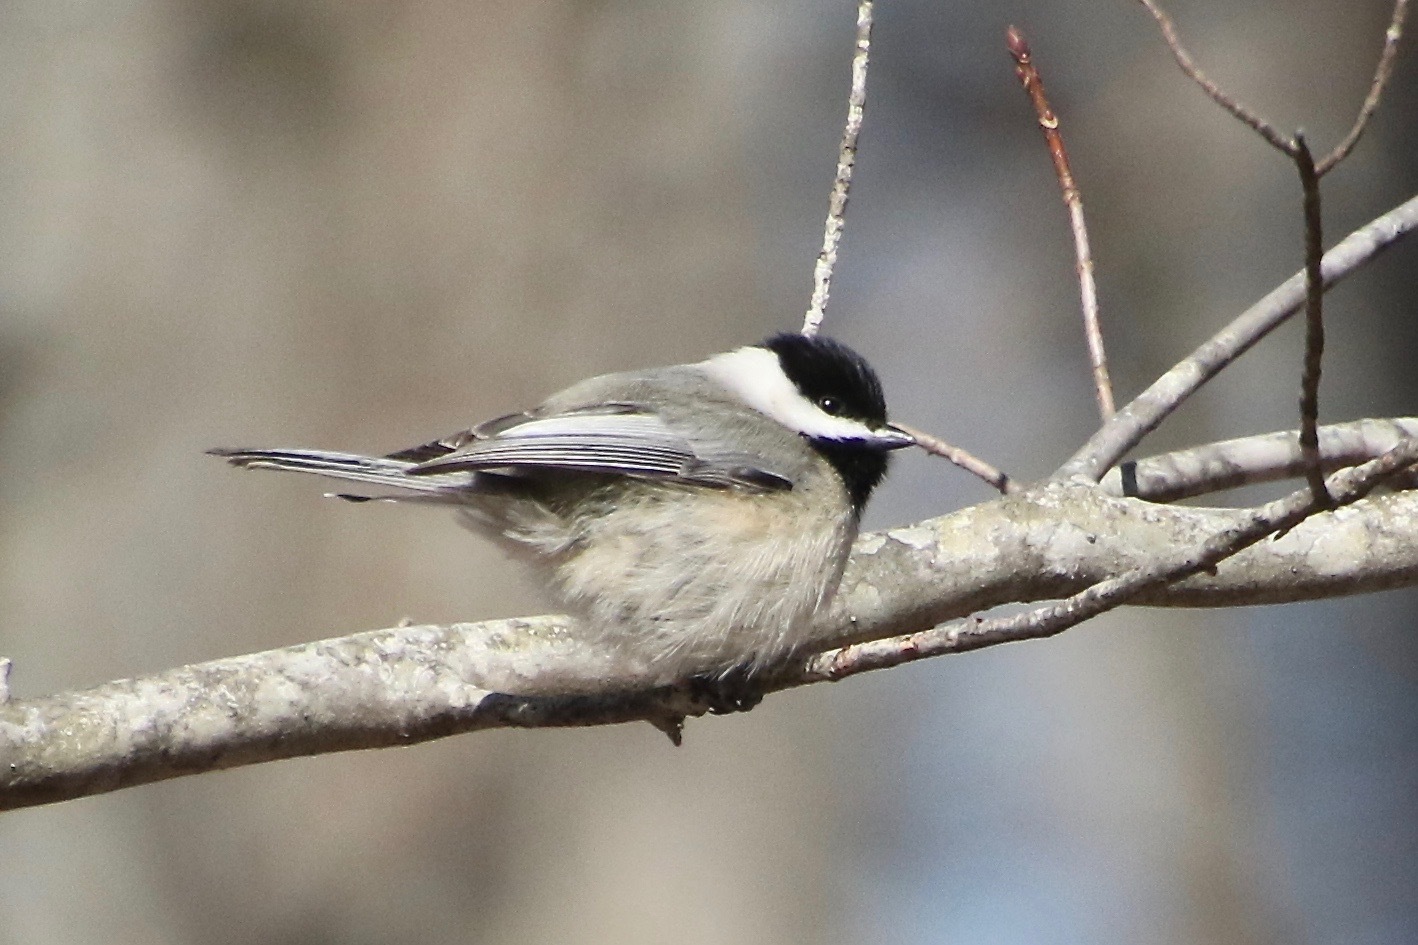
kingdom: Animalia
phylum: Chordata
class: Aves
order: Passeriformes
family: Paridae
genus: Poecile
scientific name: Poecile carolinensis
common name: Carolina chickadee
